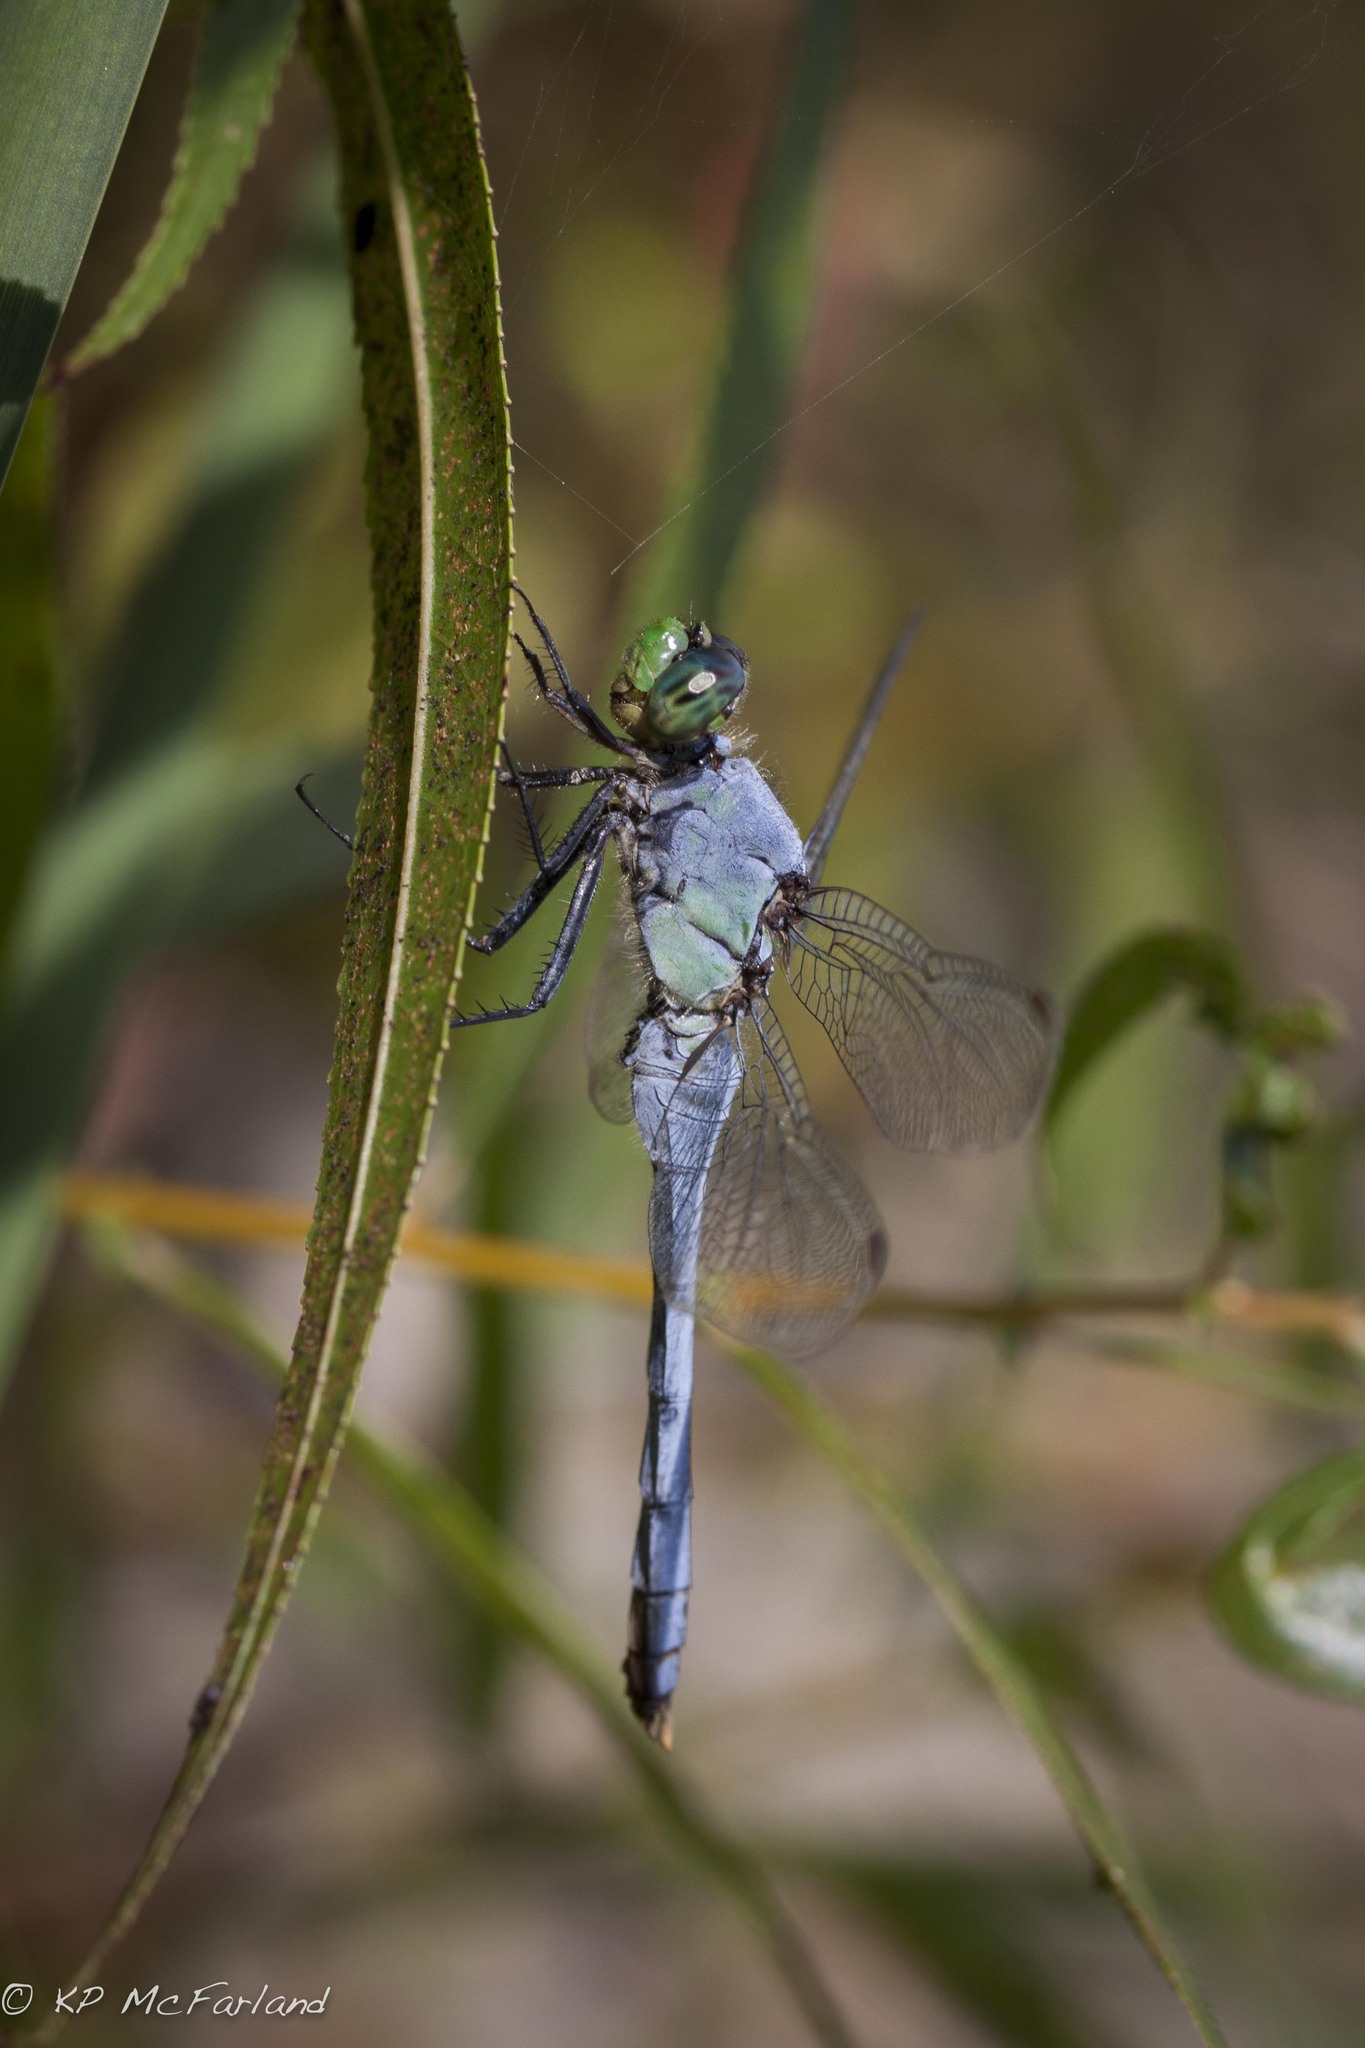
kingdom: Animalia
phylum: Arthropoda
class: Insecta
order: Odonata
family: Libellulidae
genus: Erythemis
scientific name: Erythemis simplicicollis
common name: Eastern pondhawk
